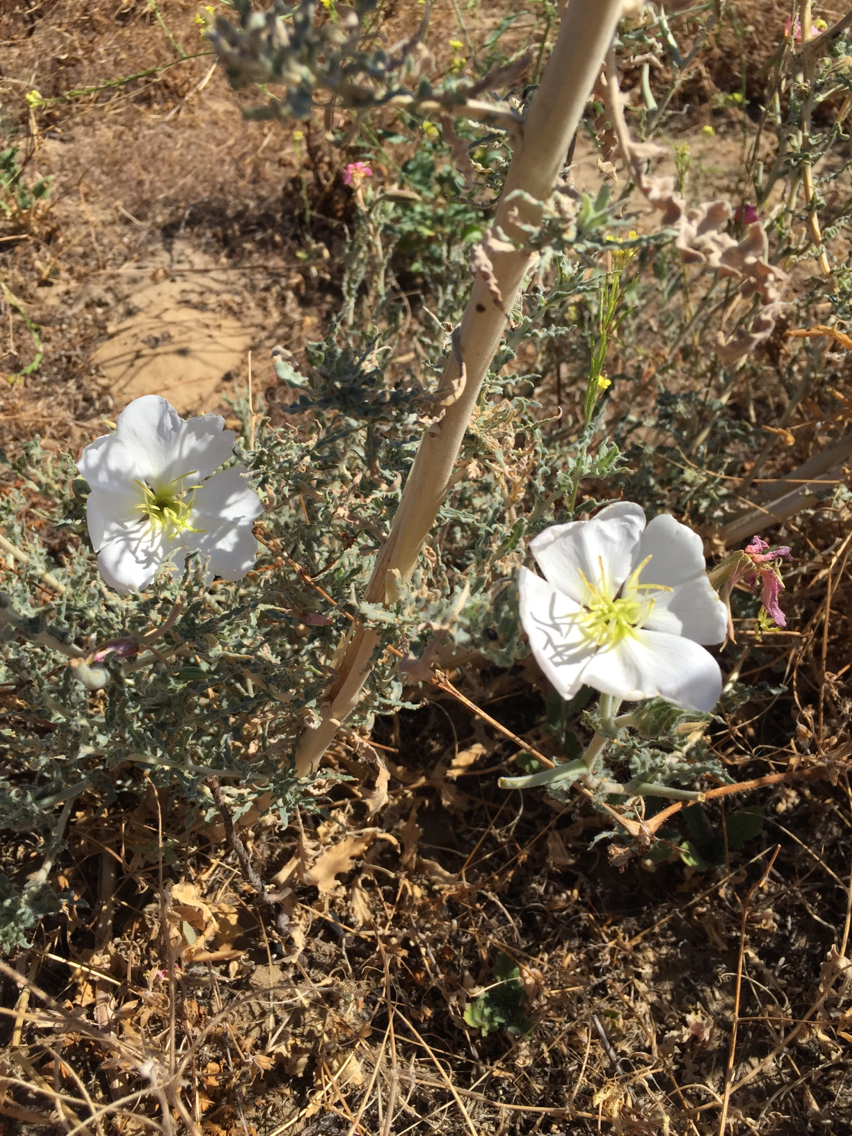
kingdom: Plantae
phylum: Tracheophyta
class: Magnoliopsida
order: Myrtales
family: Onagraceae
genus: Oenothera
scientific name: Oenothera deltoides
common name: Basket evening-primrose
